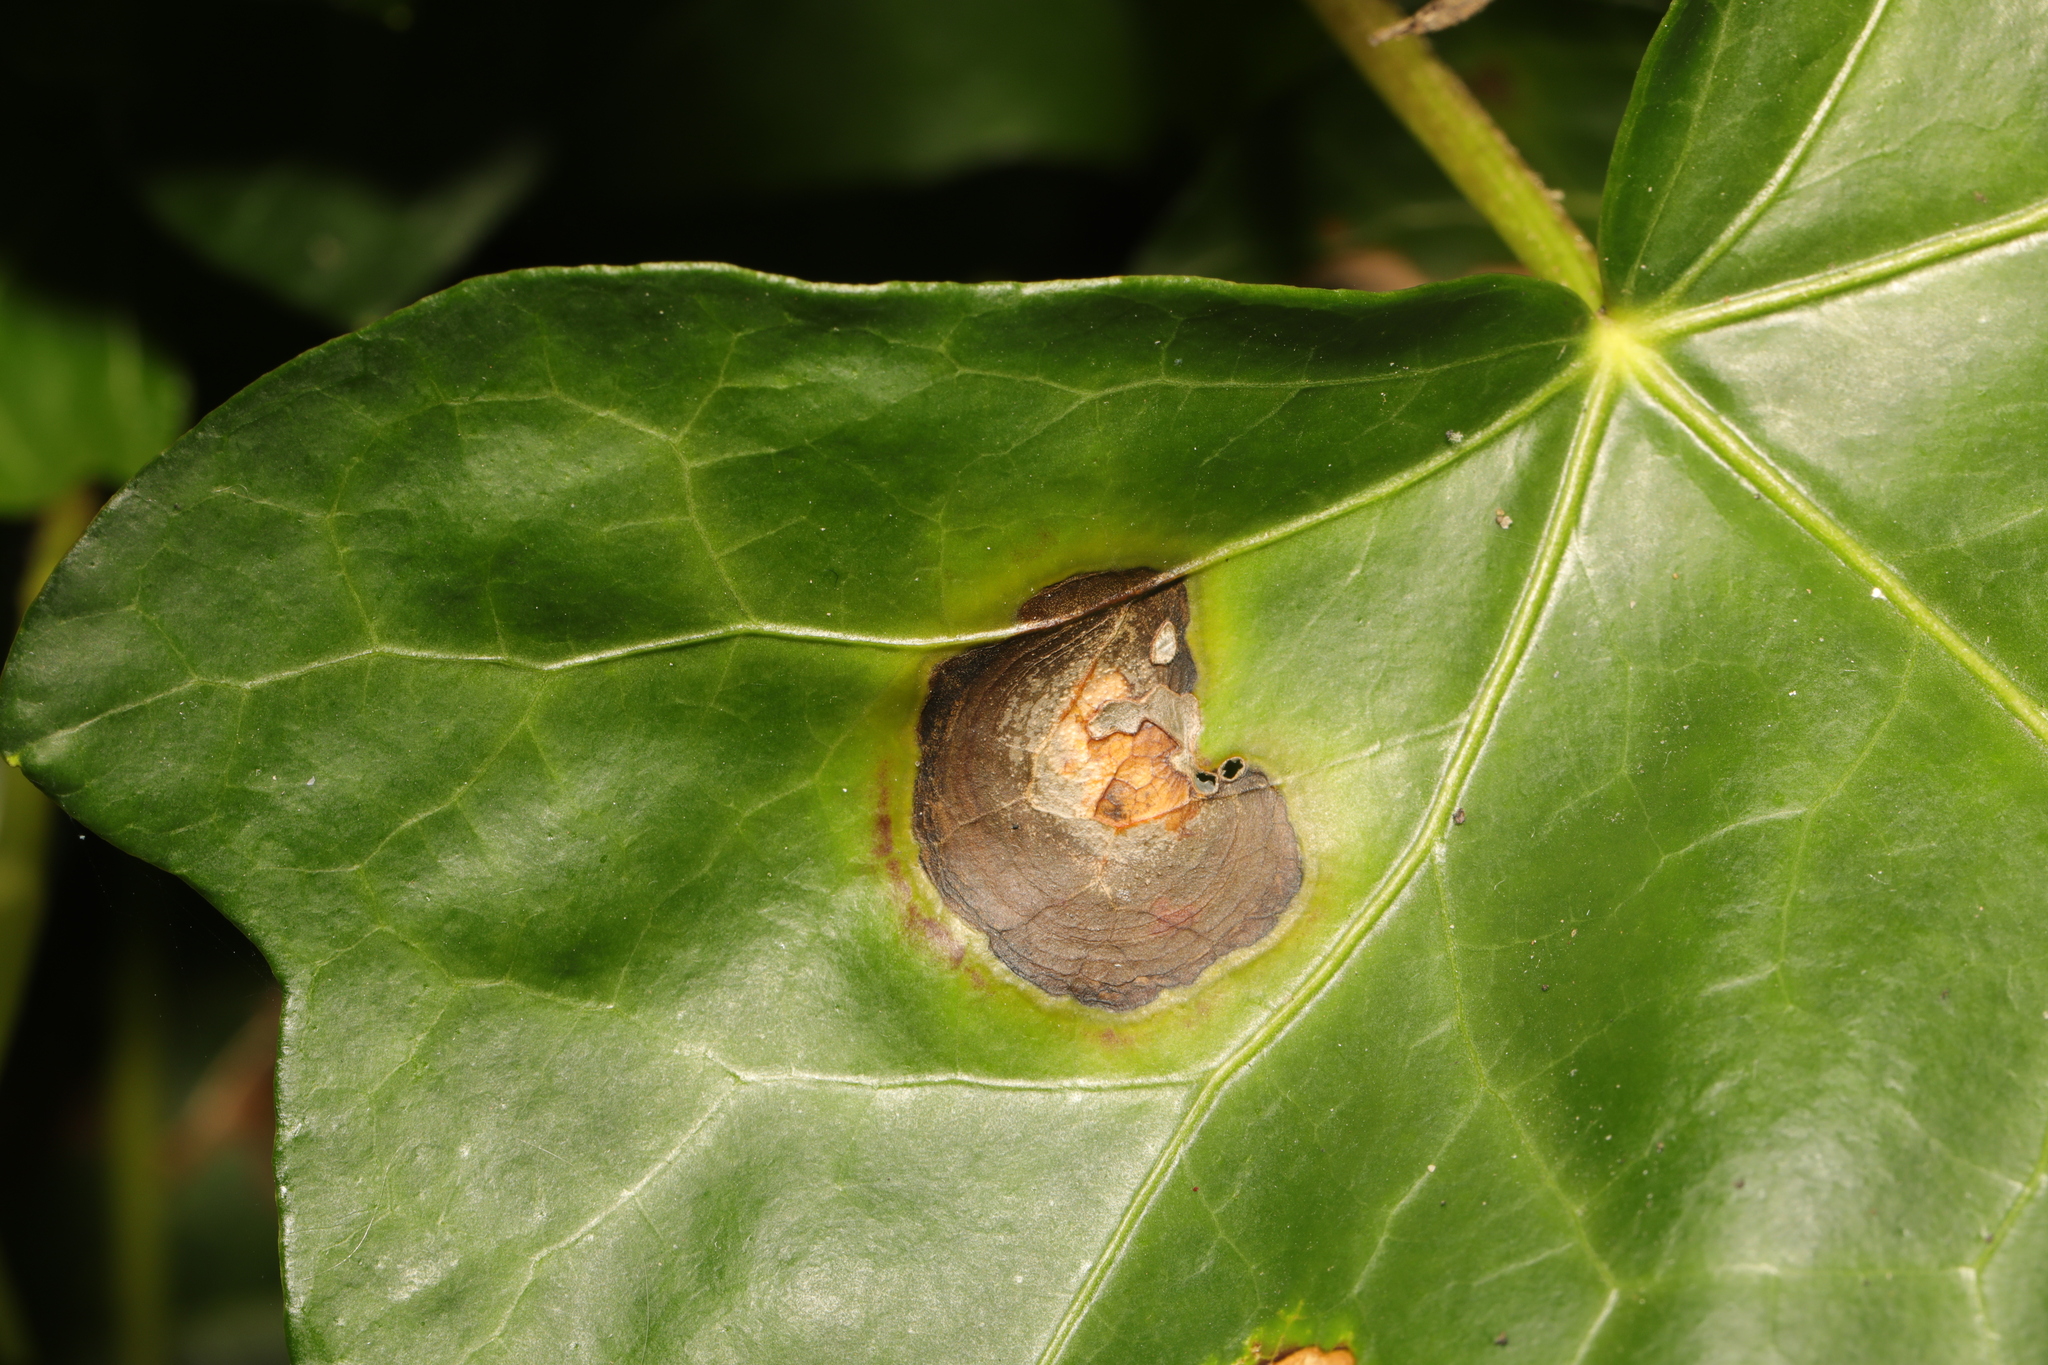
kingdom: Fungi
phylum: Ascomycota
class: Dothideomycetes
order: Pleosporales
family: Didymellaceae
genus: Boeremia
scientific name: Boeremia hedericola
